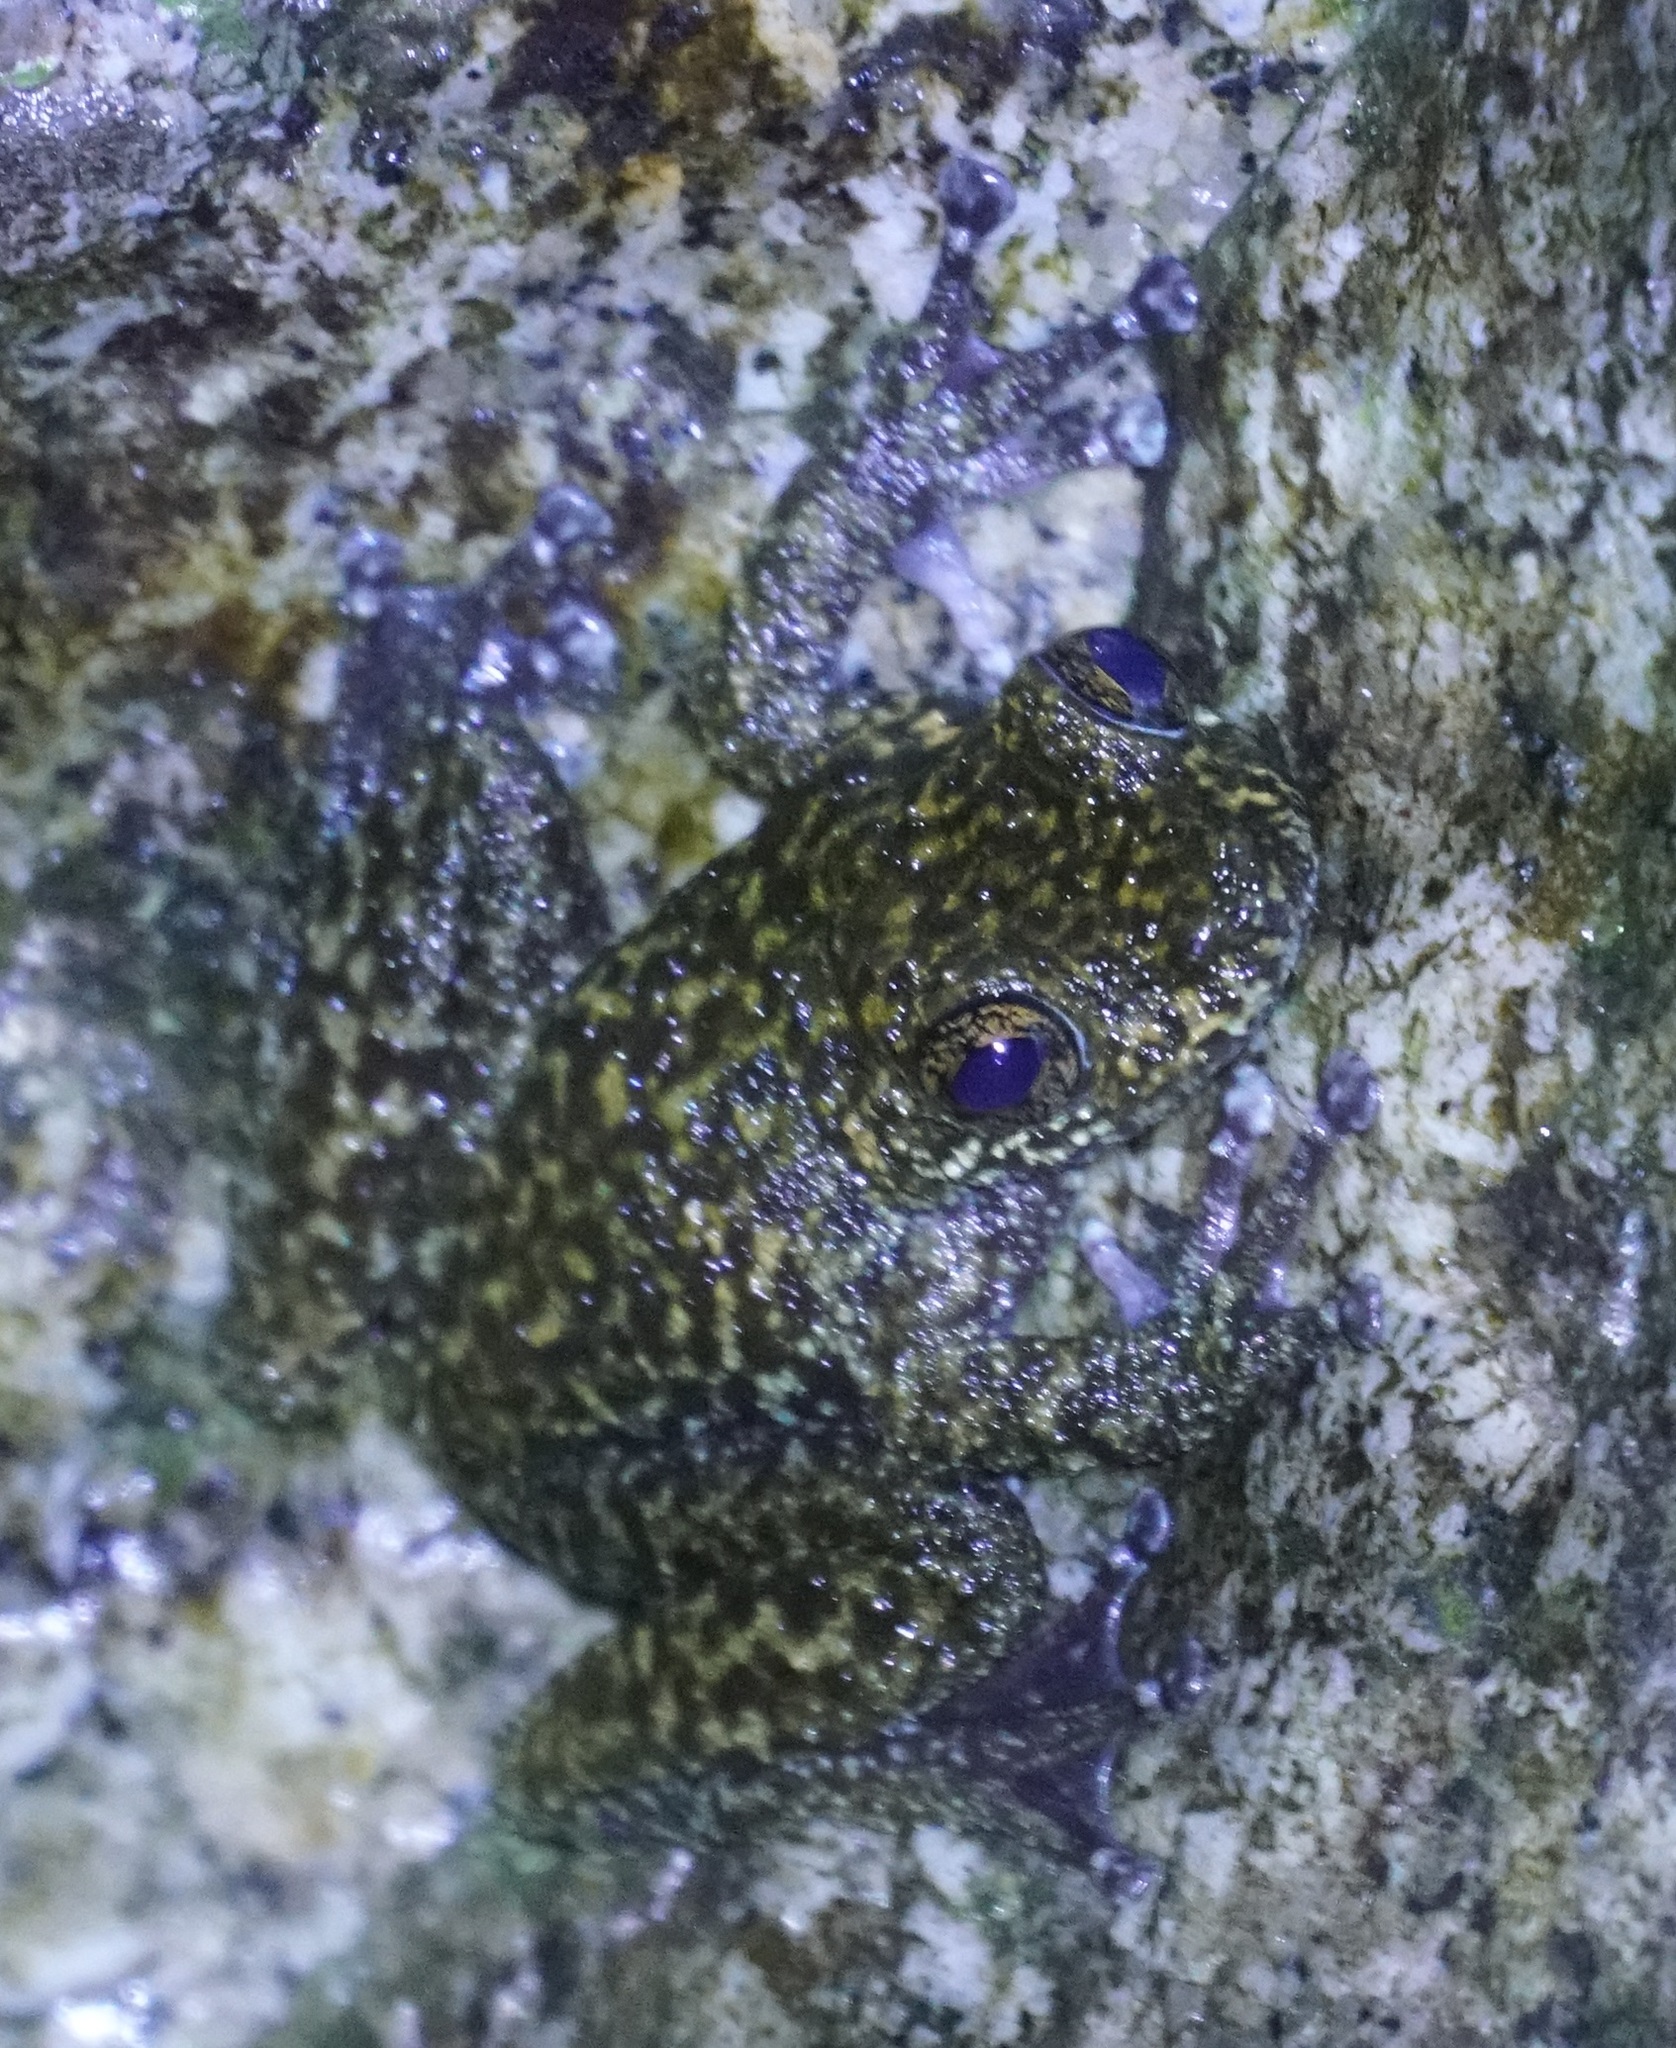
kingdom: Animalia
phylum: Chordata
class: Amphibia
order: Anura
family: Pelodryadidae
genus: Ranoidea
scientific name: Ranoidea nannotis
